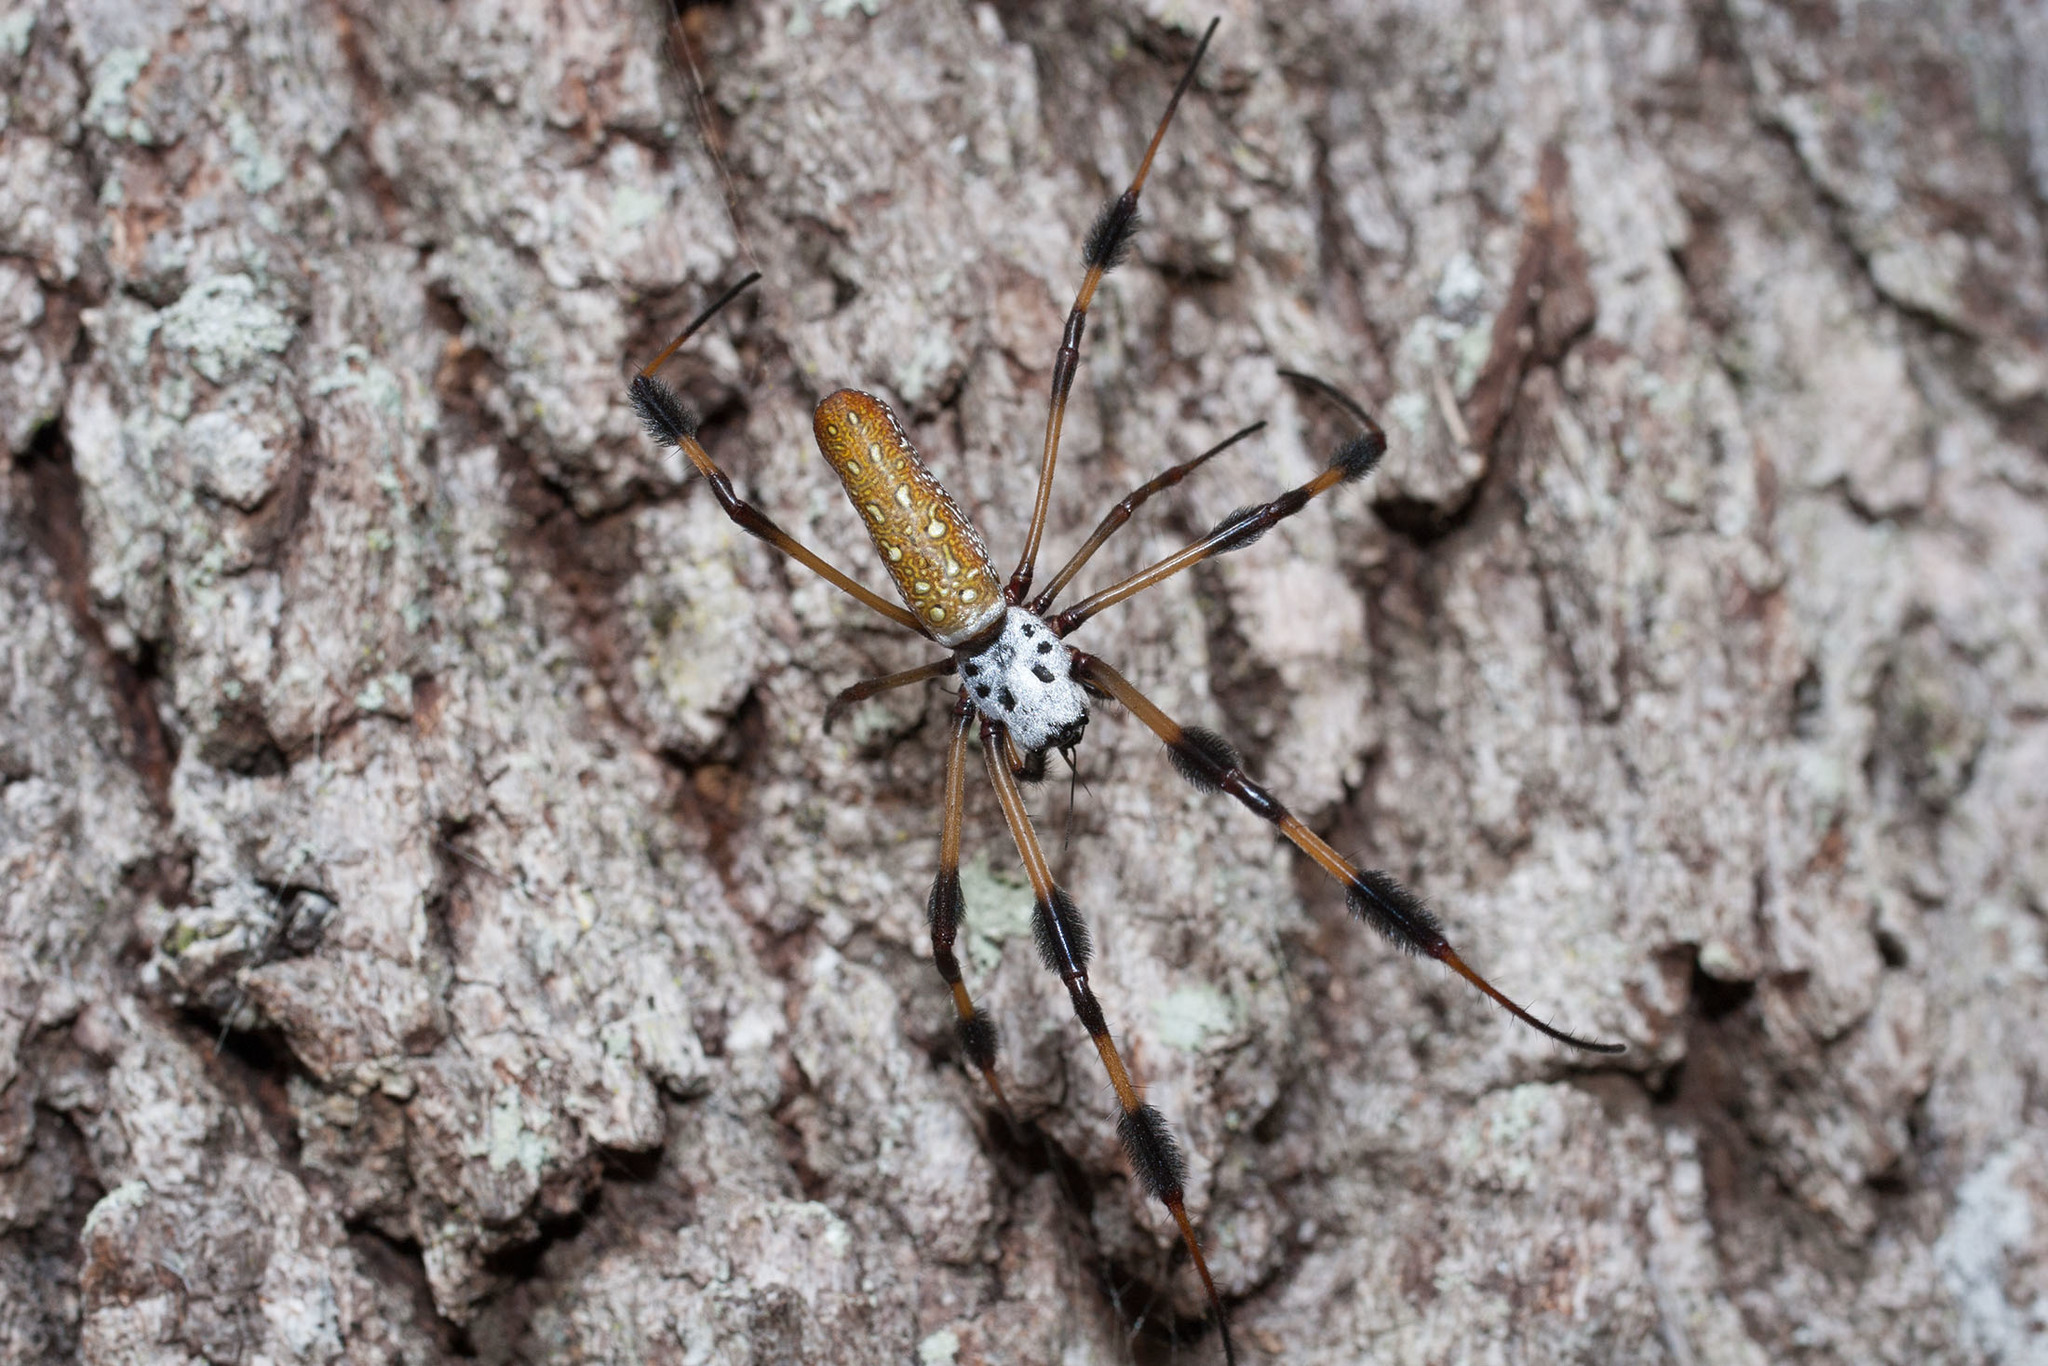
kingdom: Animalia
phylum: Arthropoda
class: Arachnida
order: Araneae
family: Araneidae
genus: Trichonephila
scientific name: Trichonephila clavipes
